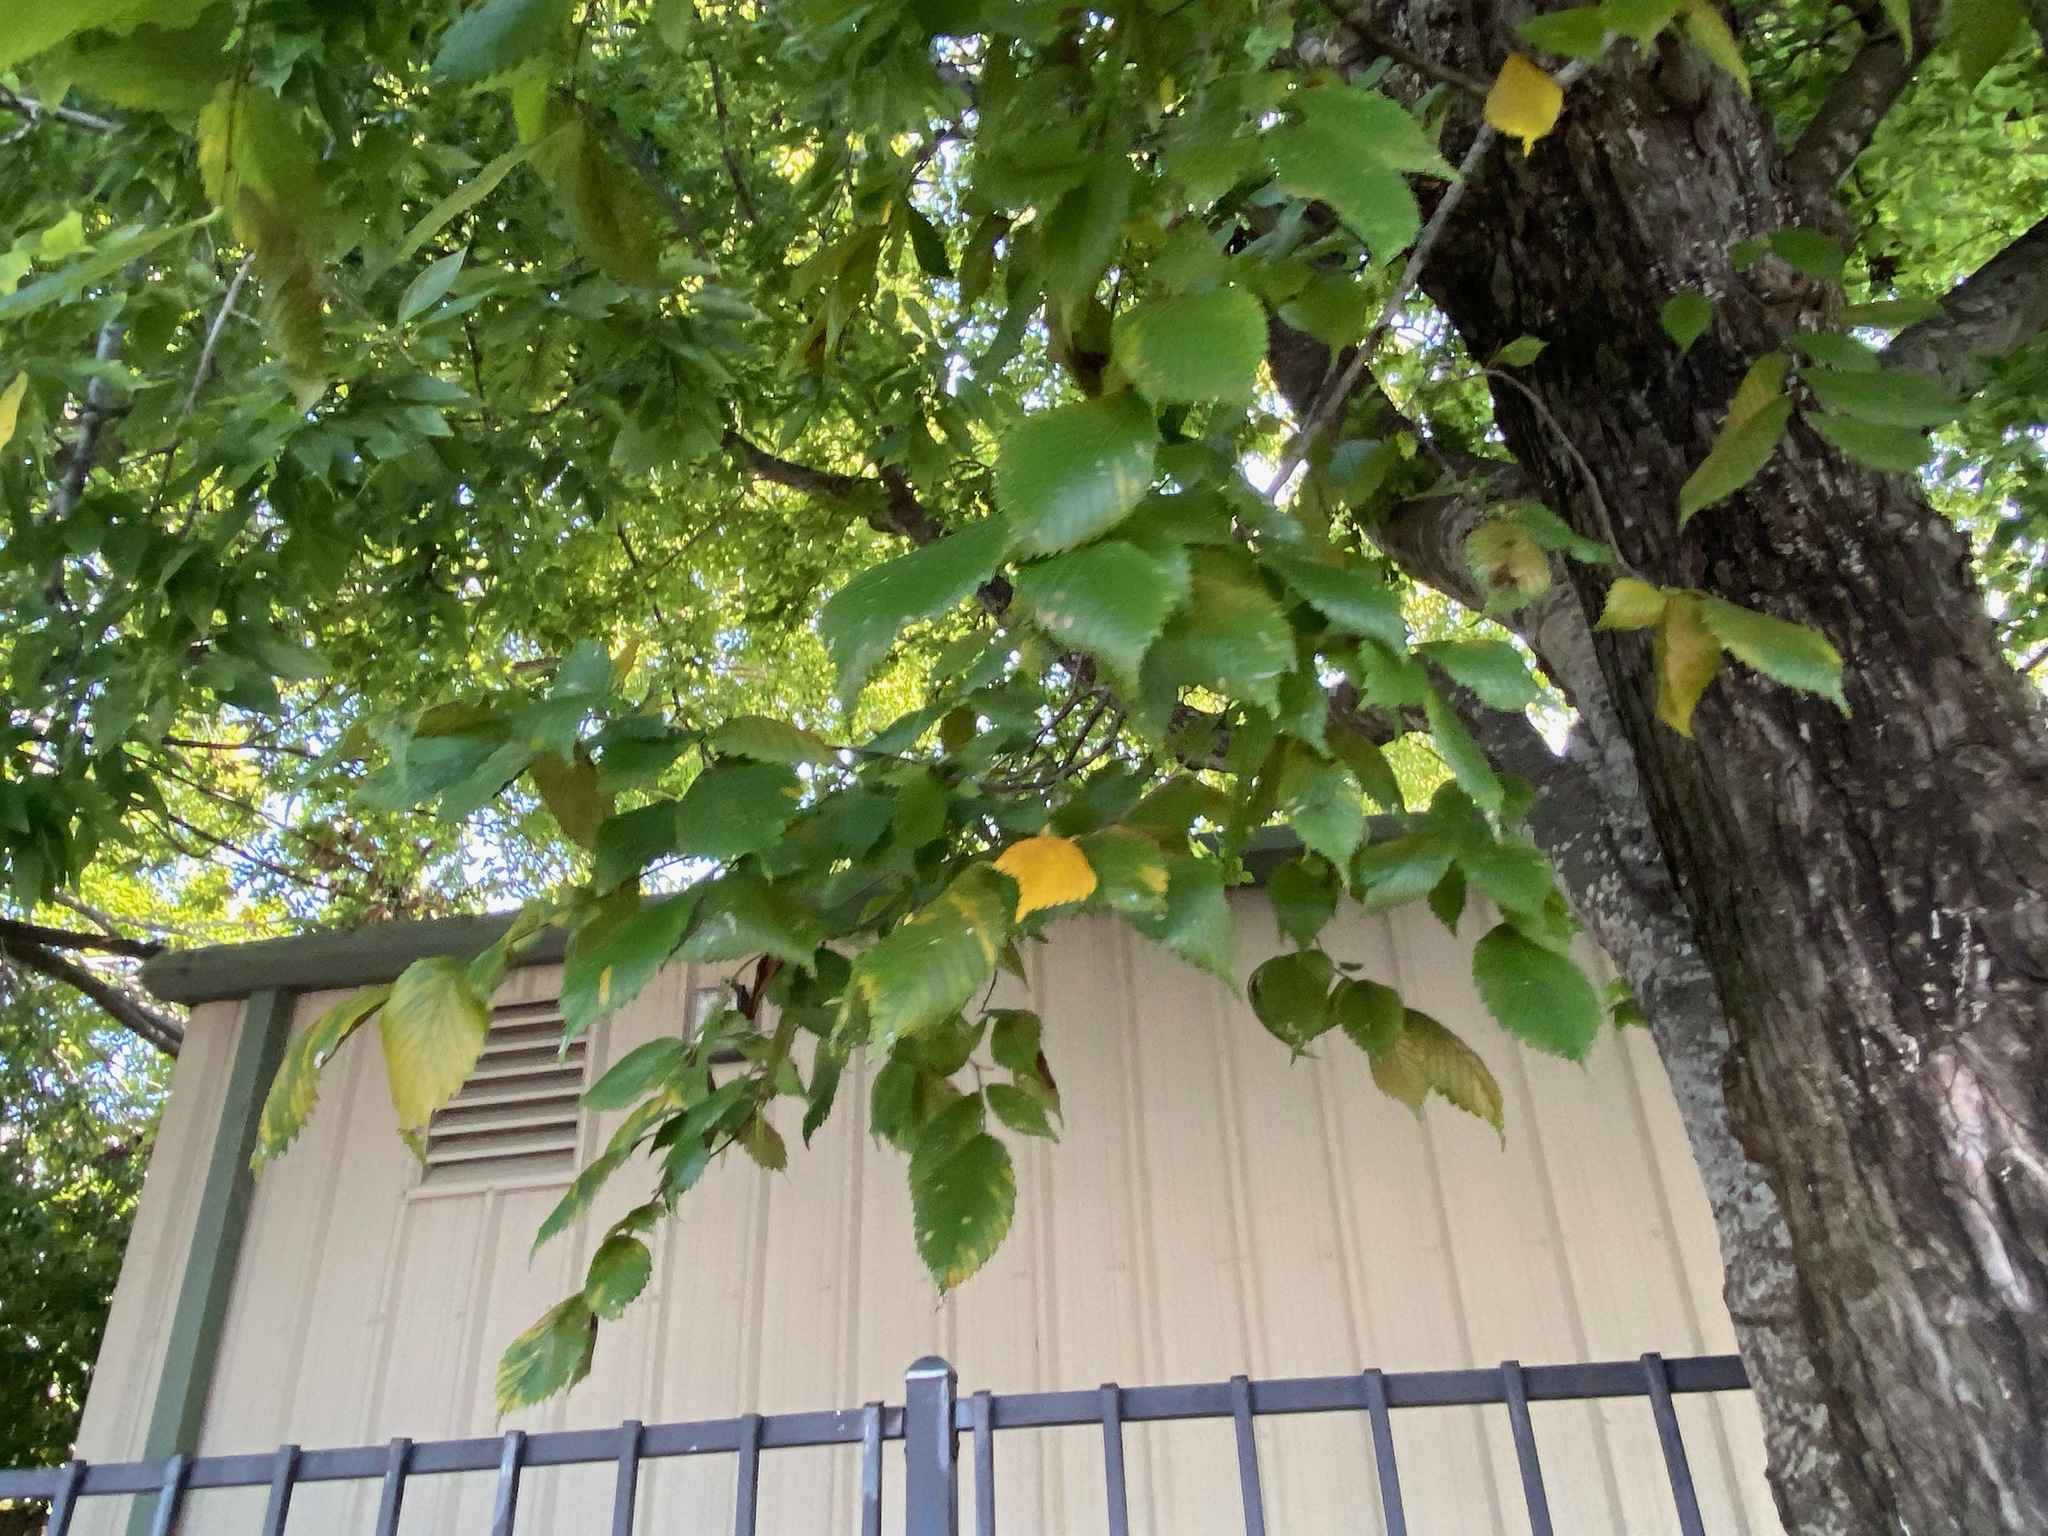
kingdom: Plantae
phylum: Tracheophyta
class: Magnoliopsida
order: Rosales
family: Ulmaceae
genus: Ulmus
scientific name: Ulmus americana
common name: American elm
